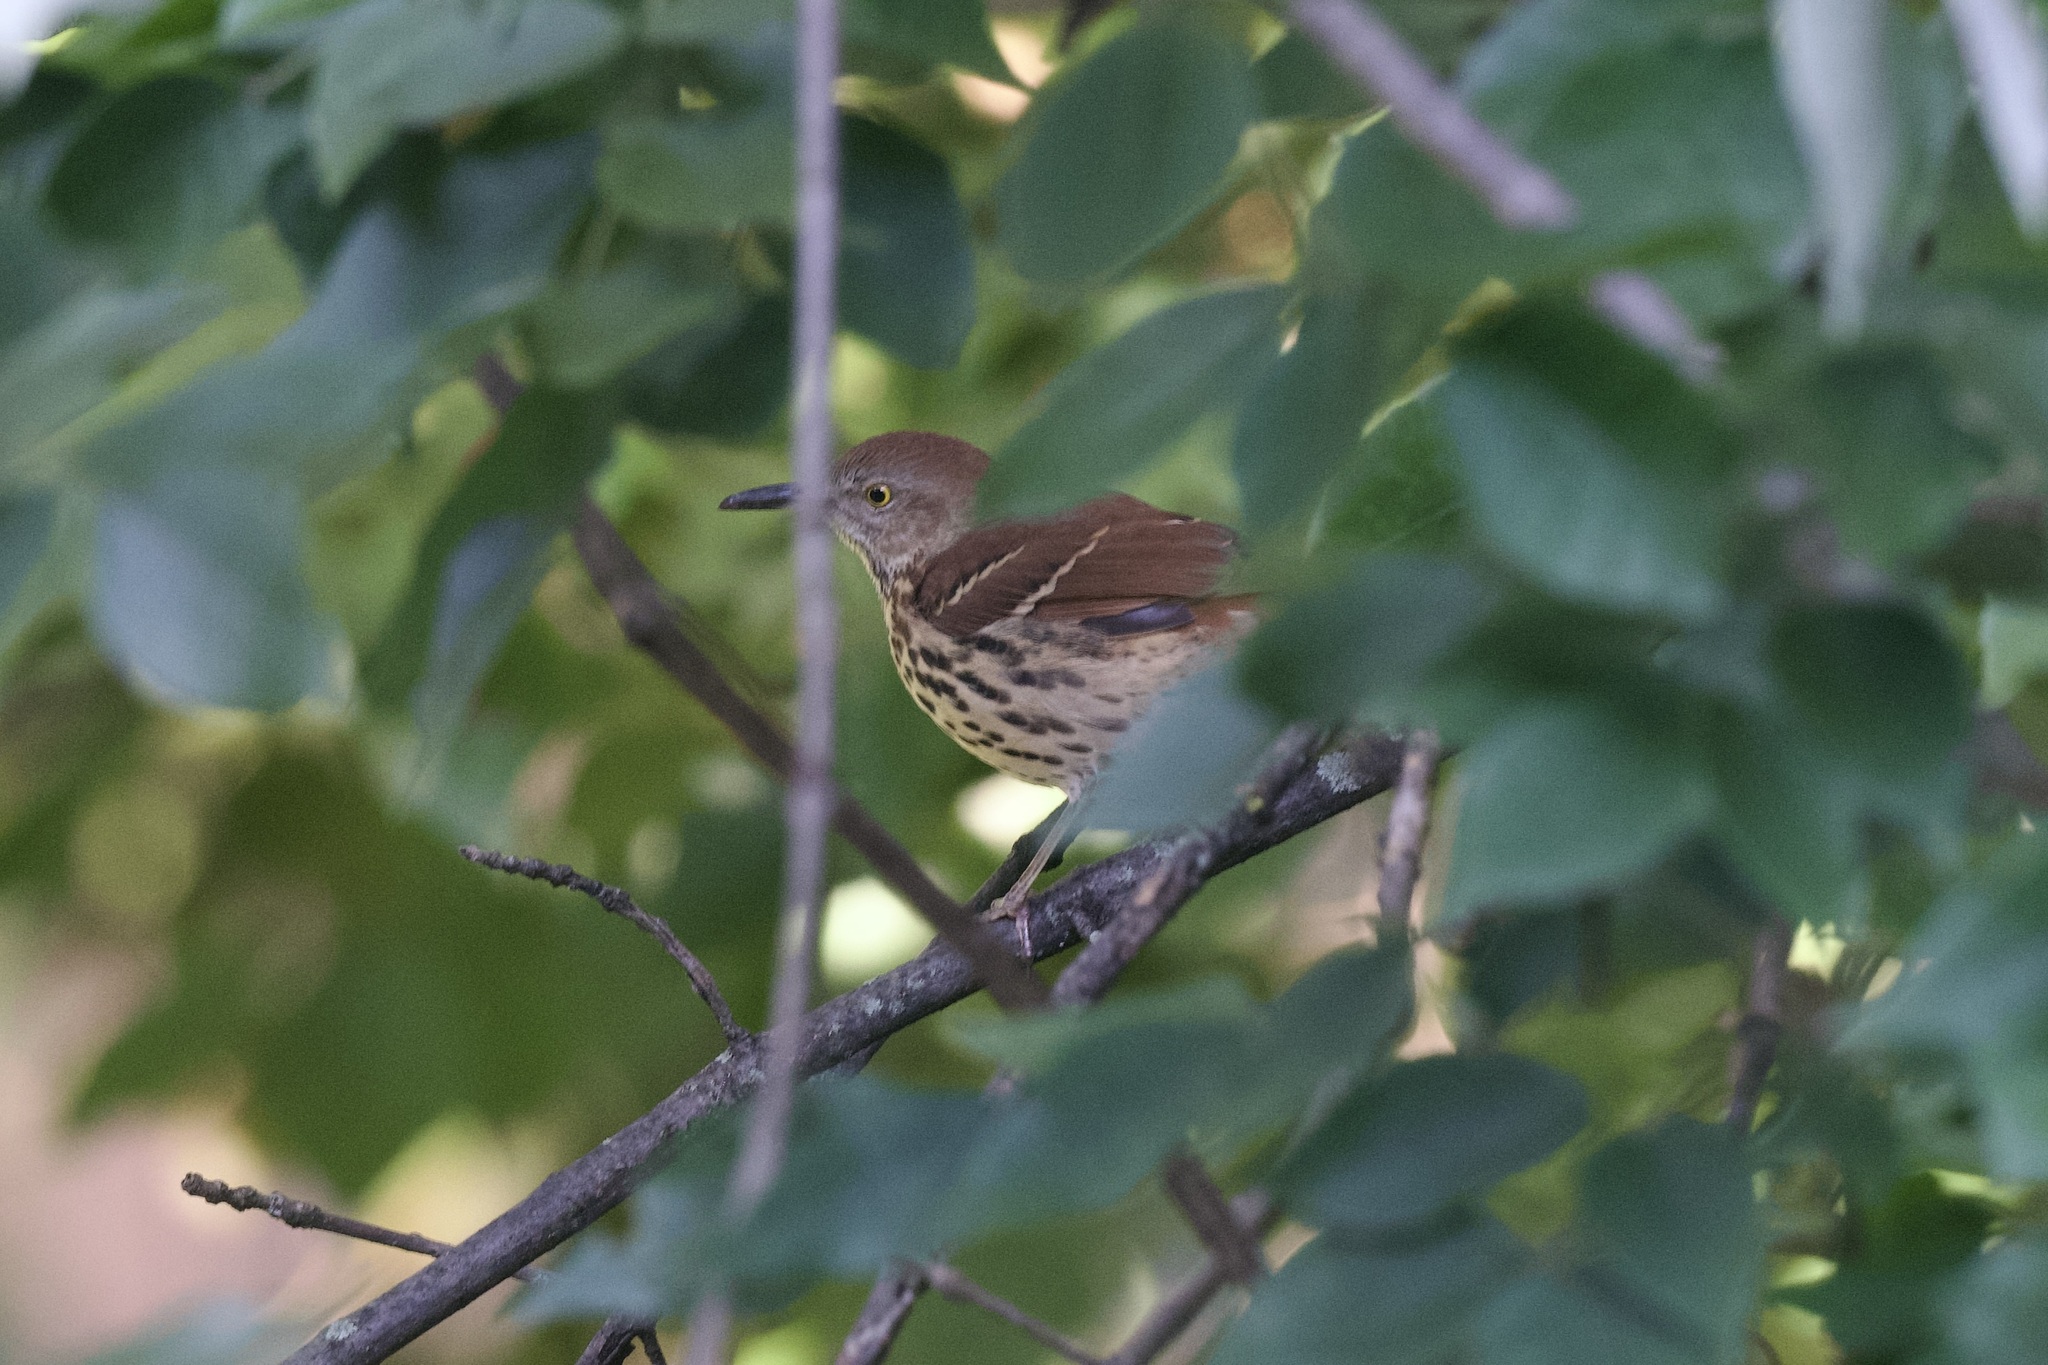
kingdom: Animalia
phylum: Chordata
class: Aves
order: Passeriformes
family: Mimidae
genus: Toxostoma
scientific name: Toxostoma rufum
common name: Brown thrasher
